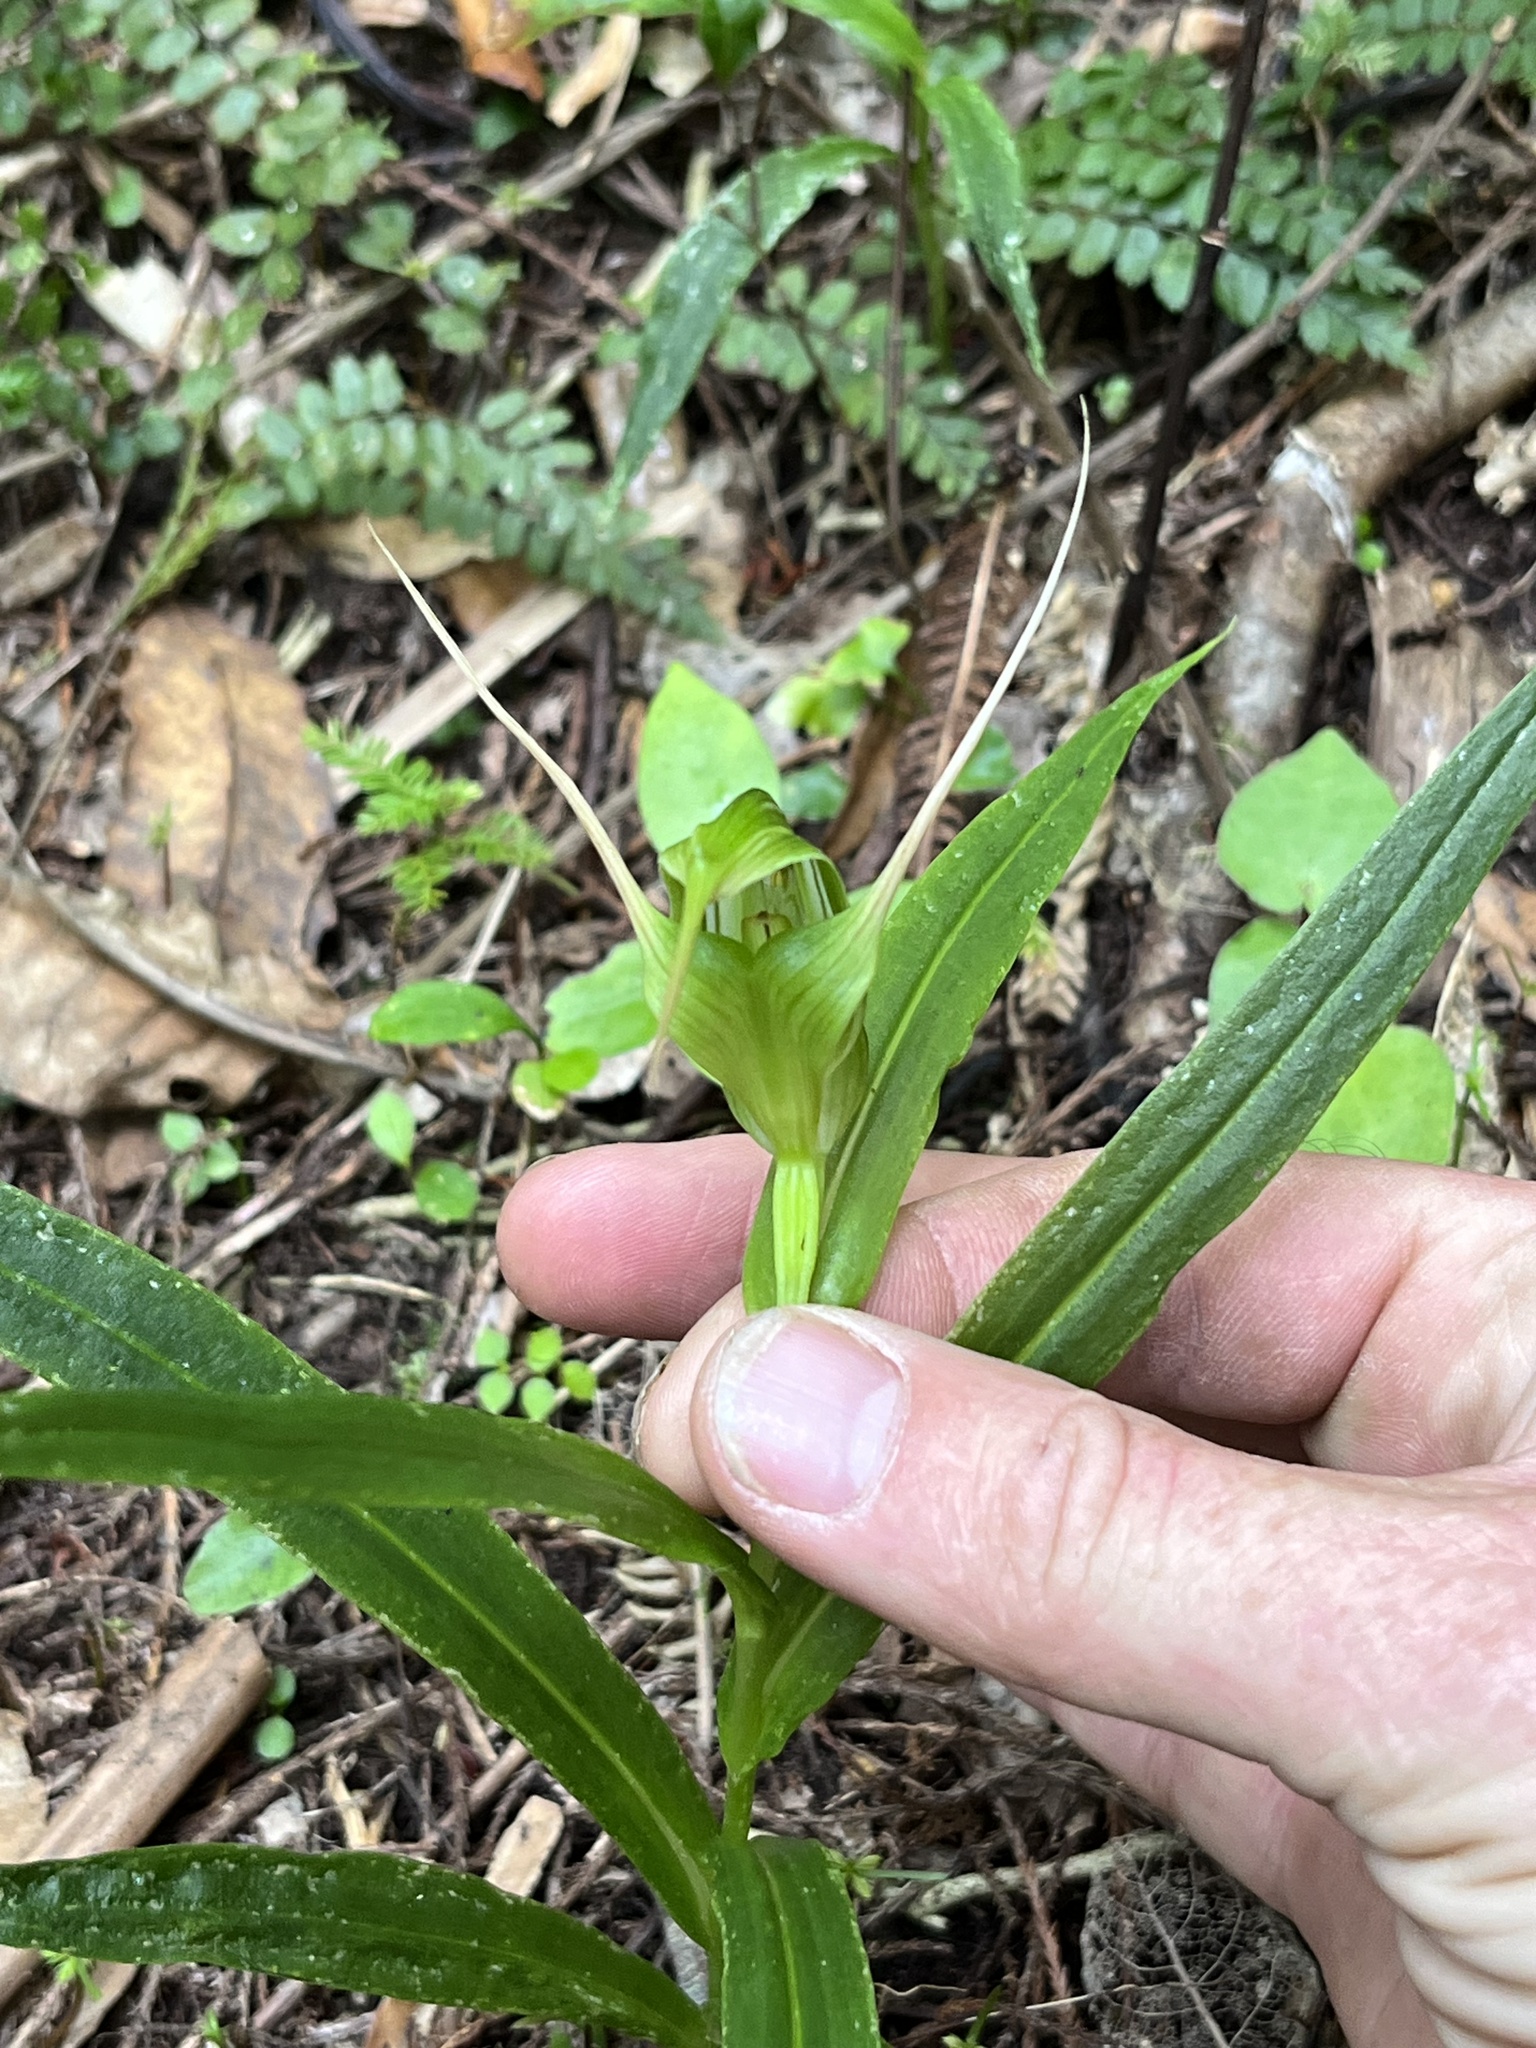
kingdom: Plantae
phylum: Tracheophyta
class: Liliopsida
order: Asparagales
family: Orchidaceae
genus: Pterostylis
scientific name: Pterostylis banksii
